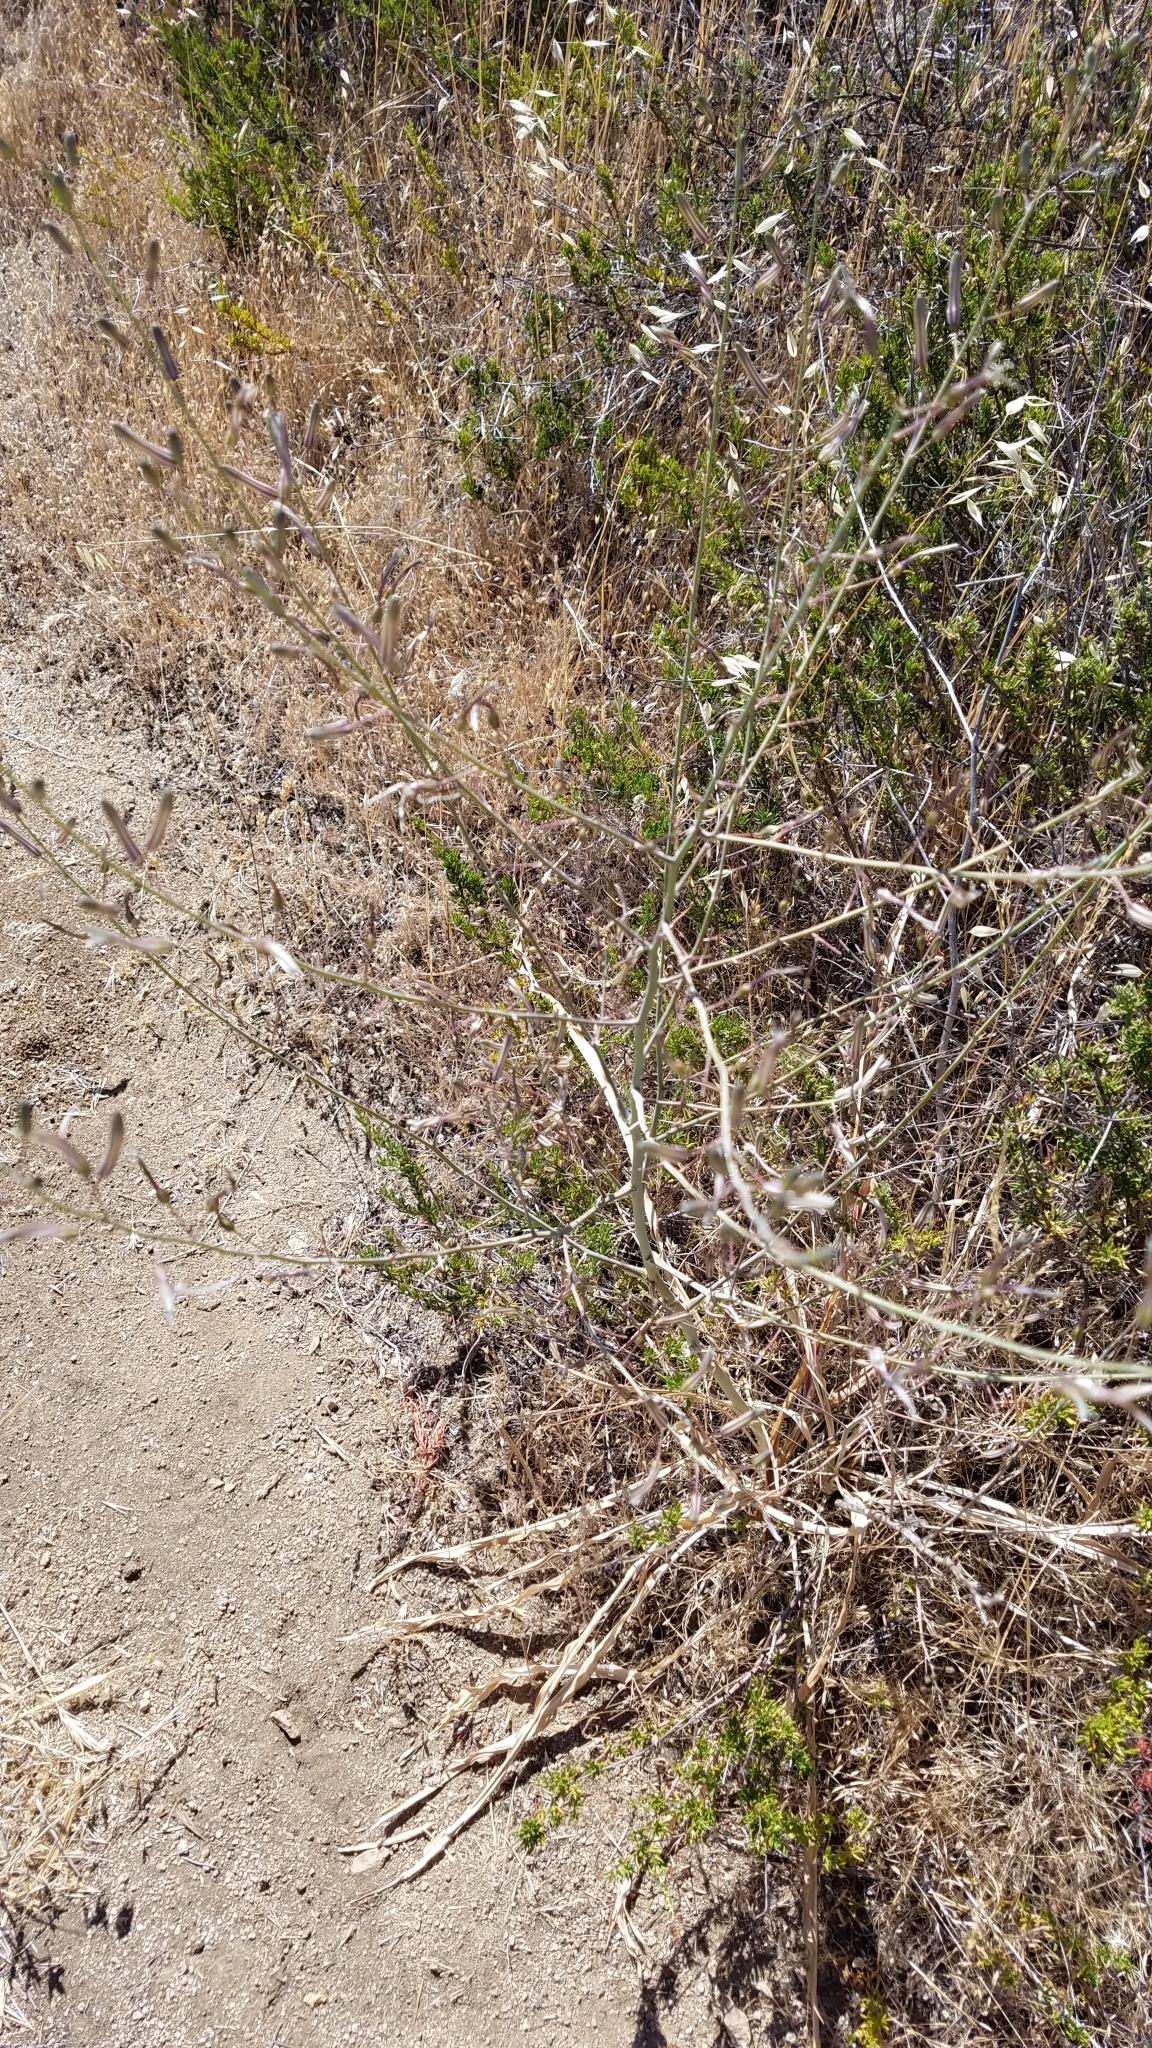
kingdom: Plantae
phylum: Tracheophyta
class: Liliopsida
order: Asparagales
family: Asparagaceae
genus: Chlorogalum
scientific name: Chlorogalum pomeridianum
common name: Amole
